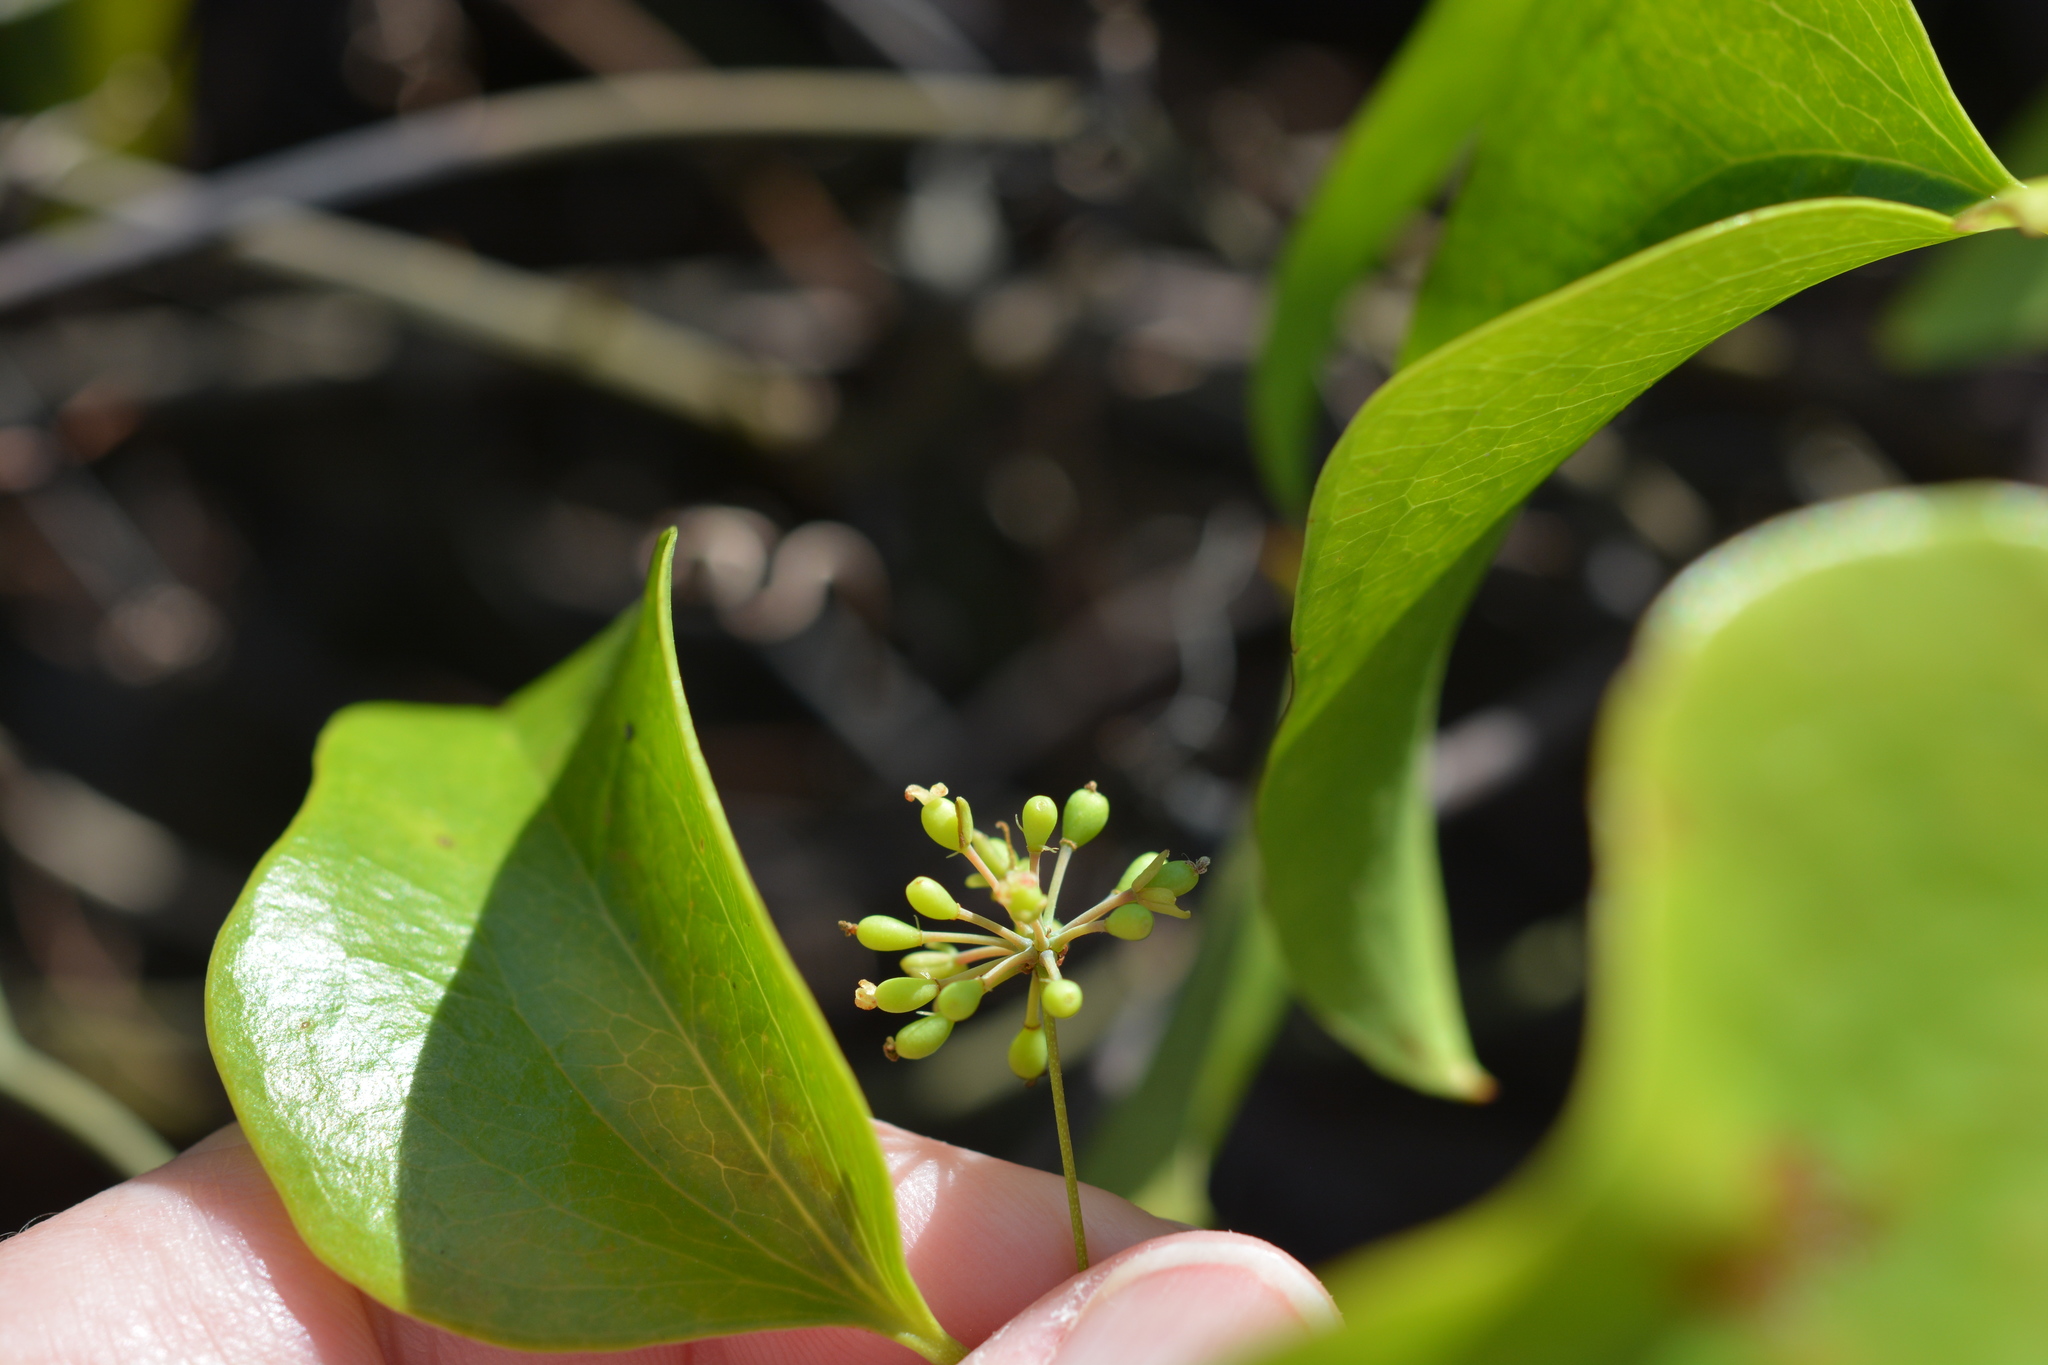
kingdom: Plantae
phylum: Tracheophyta
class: Liliopsida
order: Liliales
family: Smilacaceae
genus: Smilax
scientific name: Smilax bona-nox
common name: Catbrier
